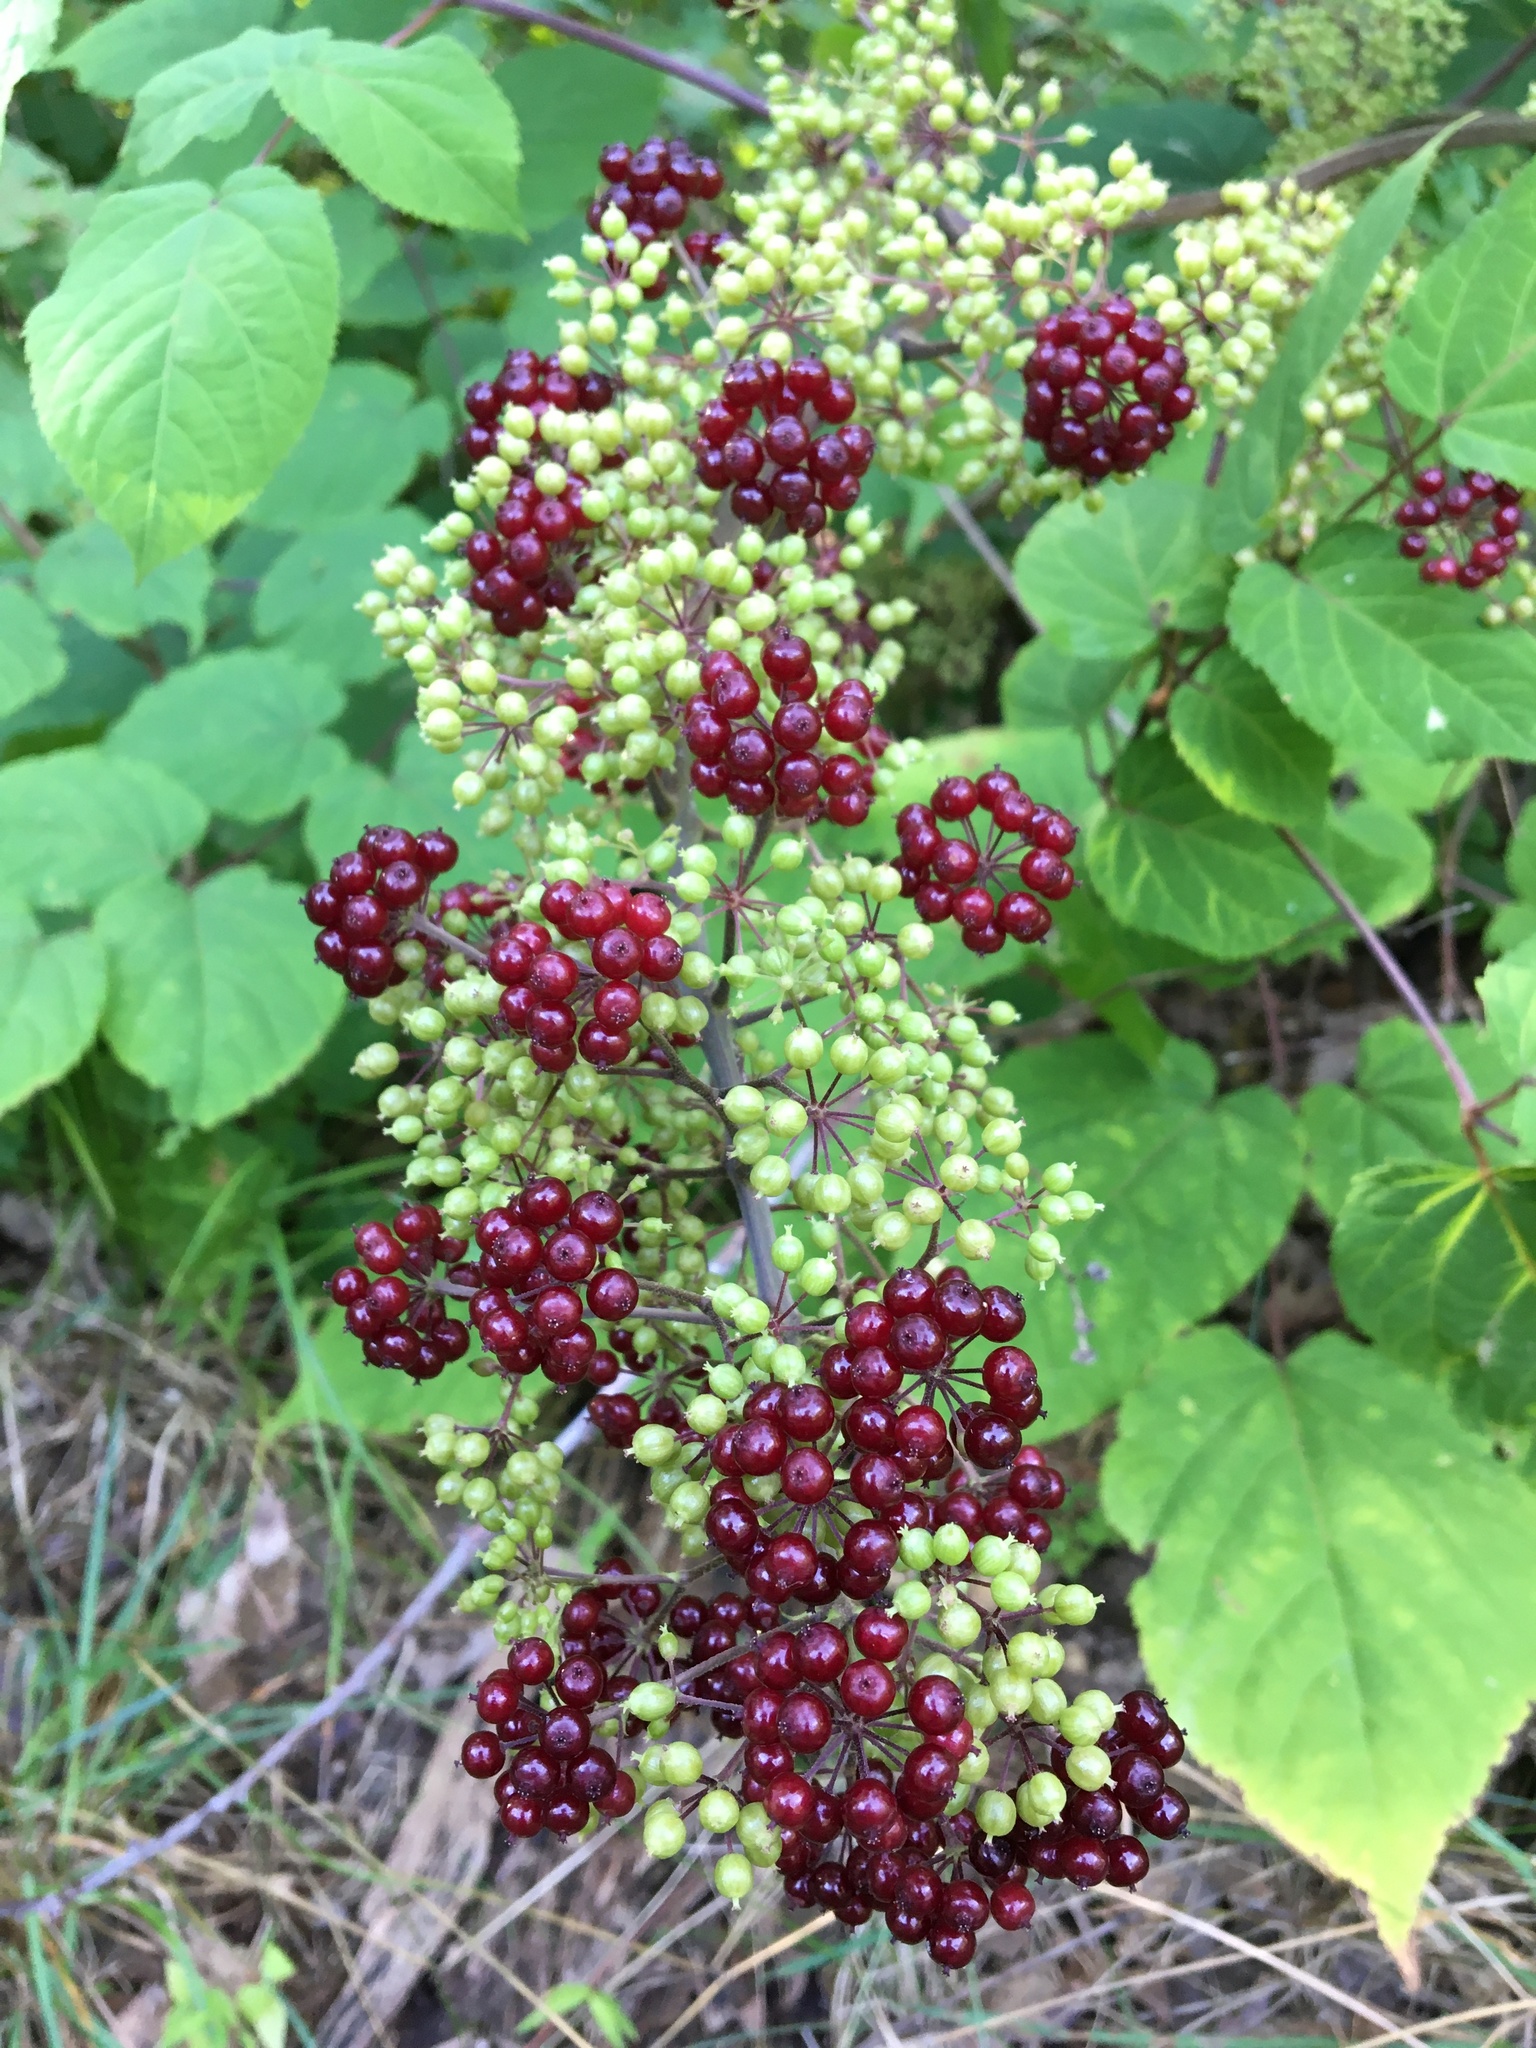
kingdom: Plantae
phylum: Tracheophyta
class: Magnoliopsida
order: Apiales
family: Araliaceae
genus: Aralia
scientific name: Aralia racemosa
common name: American-spikenard
